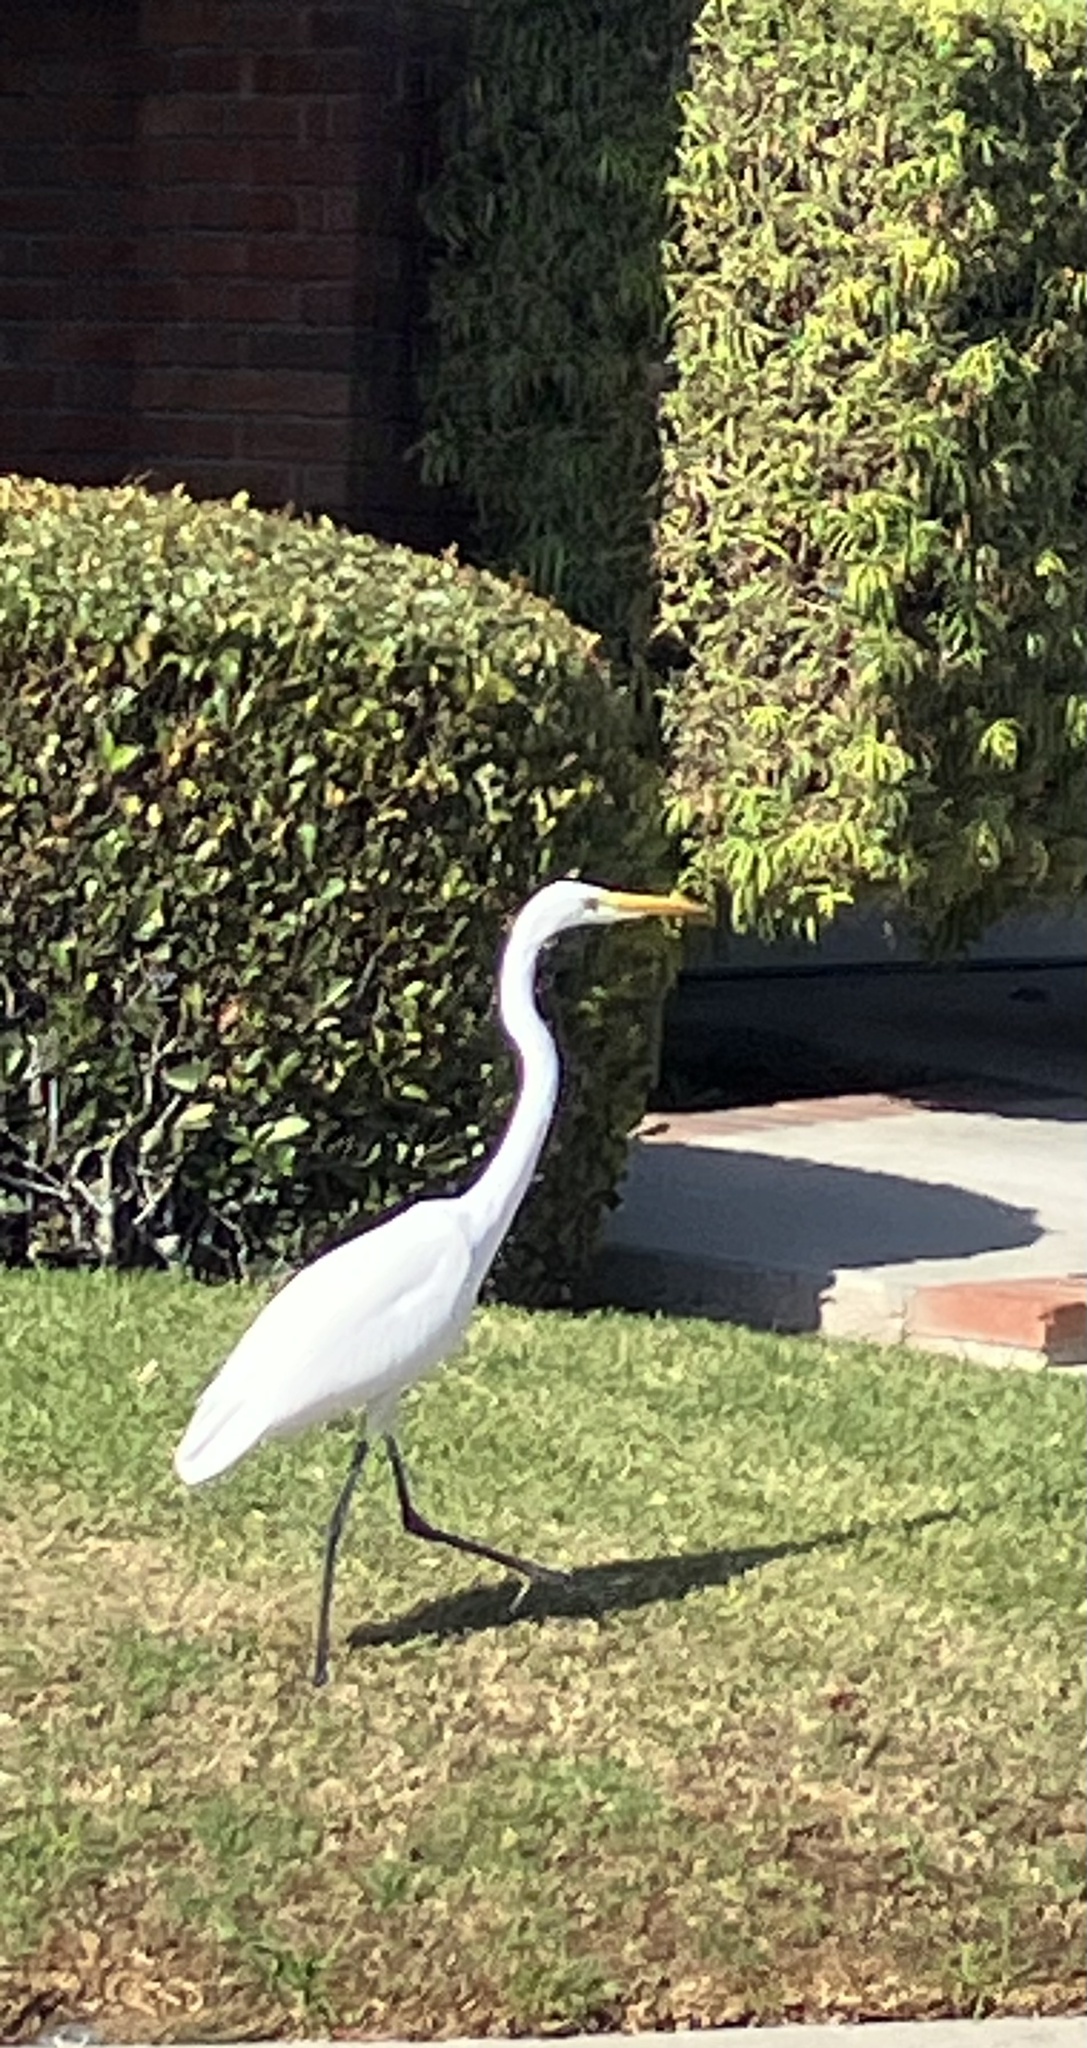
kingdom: Animalia
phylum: Chordata
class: Aves
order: Pelecaniformes
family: Ardeidae
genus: Ardea
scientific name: Ardea alba
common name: Great egret
